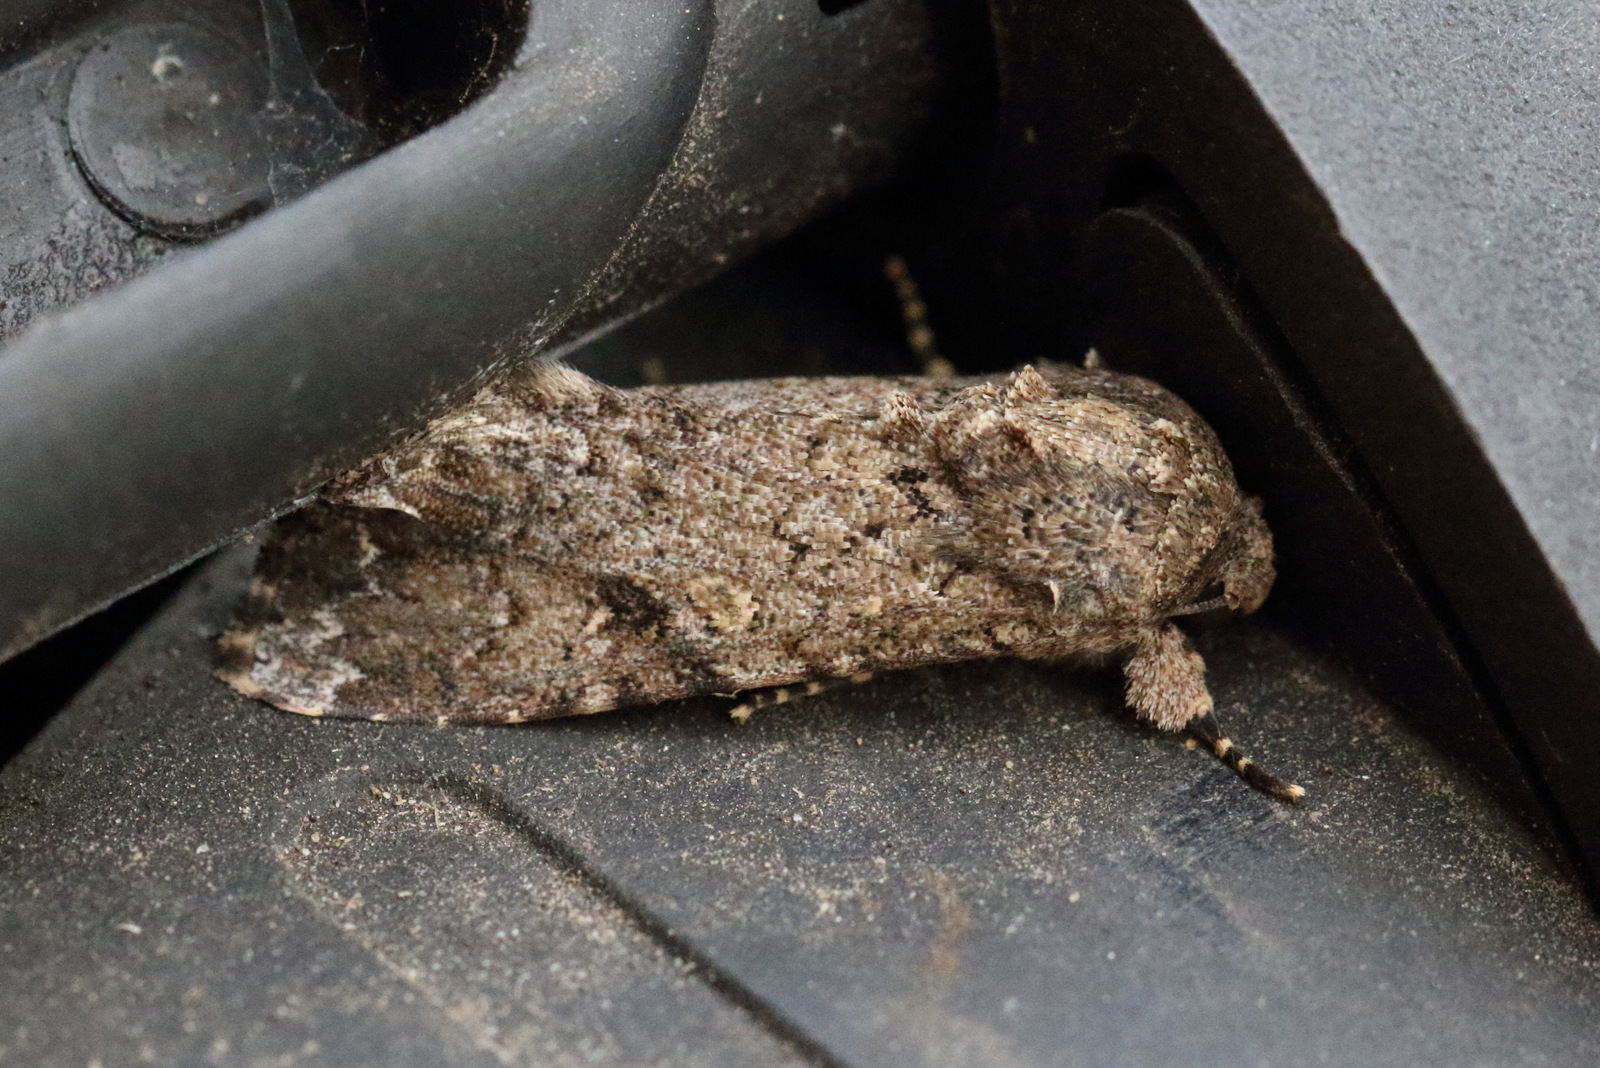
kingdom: Animalia
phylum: Arthropoda
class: Insecta
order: Lepidoptera
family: Noctuidae
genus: Spodoptera
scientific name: Spodoptera mauritia
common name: Lawn armyworm
